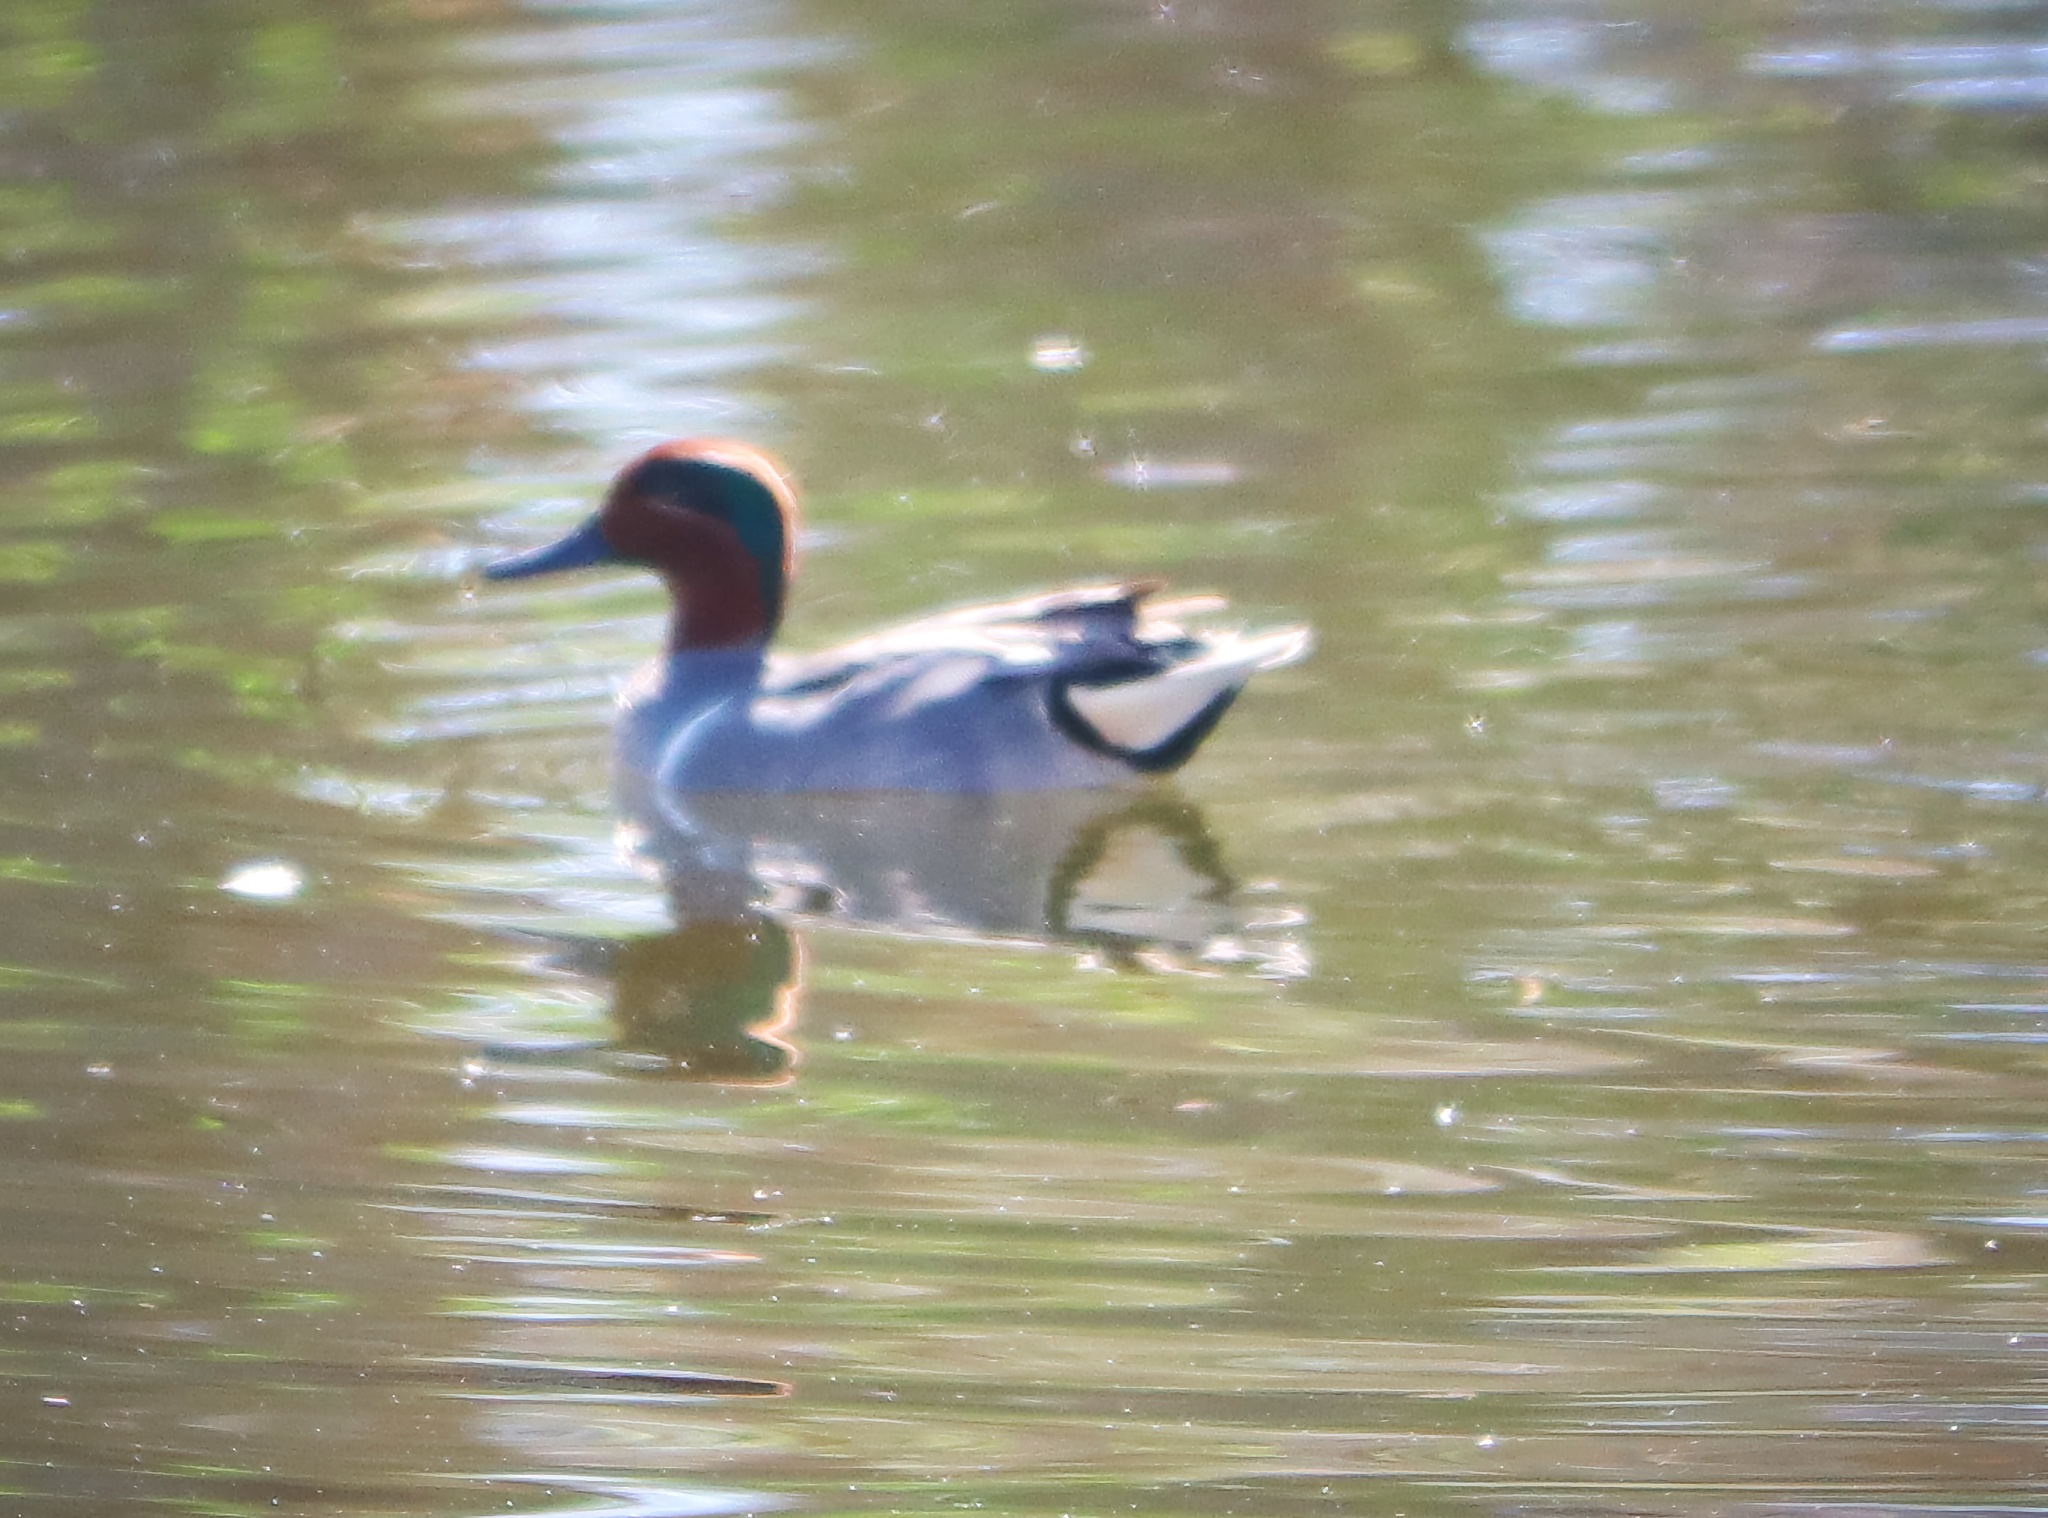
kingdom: Animalia
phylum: Chordata
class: Aves
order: Anseriformes
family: Anatidae
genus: Anas
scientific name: Anas crecca
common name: Eurasian teal
